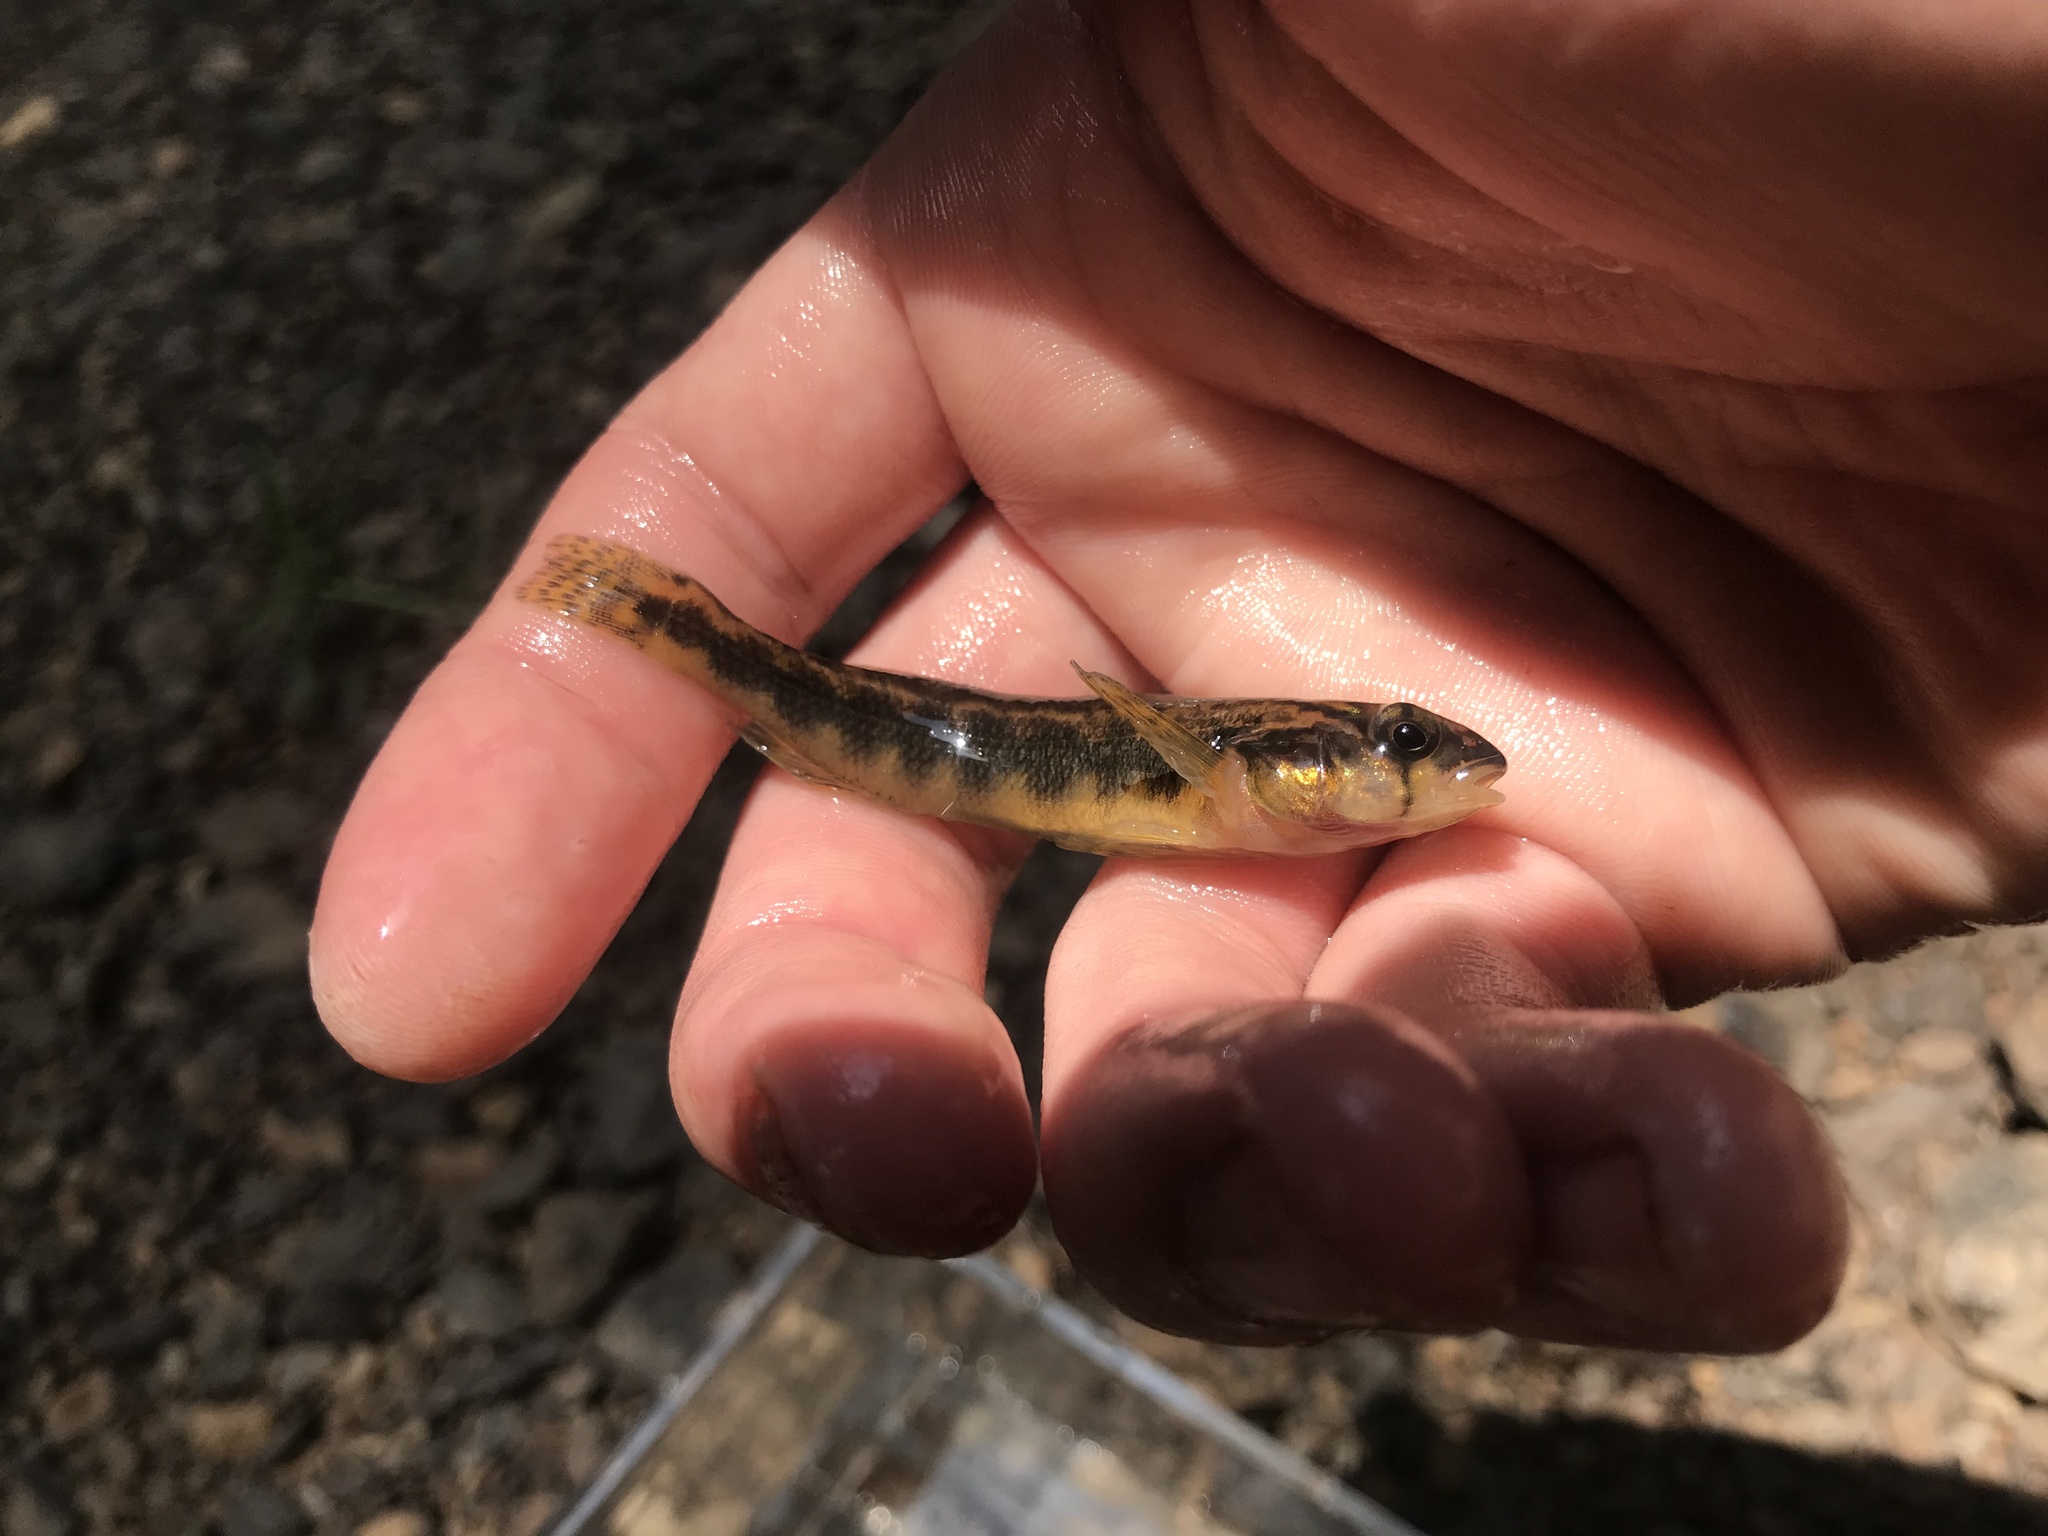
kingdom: Animalia
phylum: Chordata
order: Perciformes
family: Percidae
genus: Percina
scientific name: Percina crassa
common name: Piedmont darter
